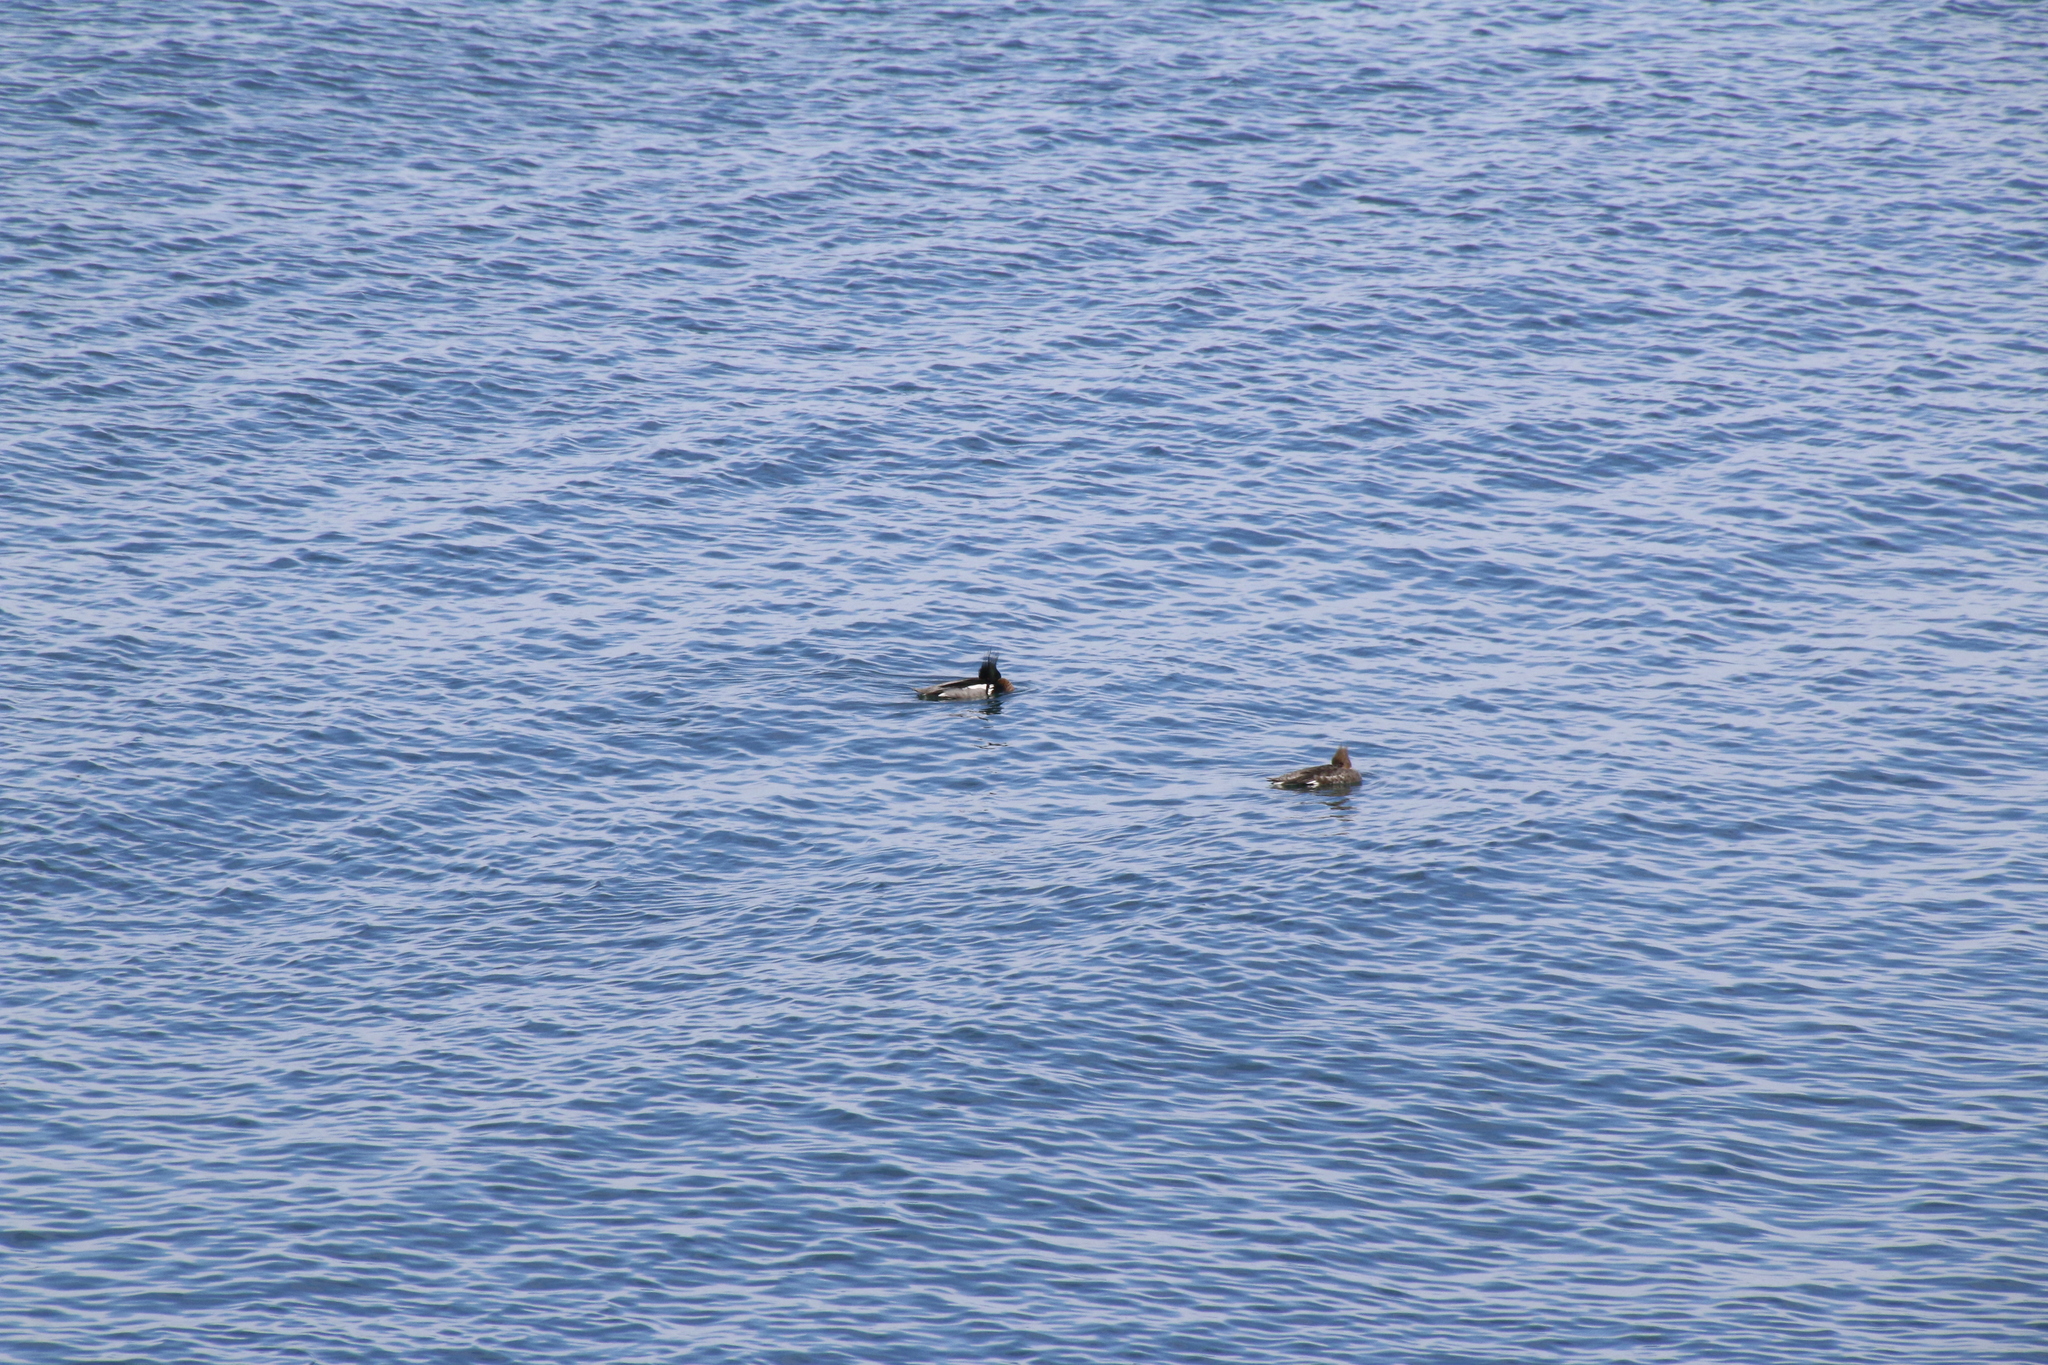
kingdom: Animalia
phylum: Chordata
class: Aves
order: Anseriformes
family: Anatidae
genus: Mergus
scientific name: Mergus serrator
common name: Red-breasted merganser
